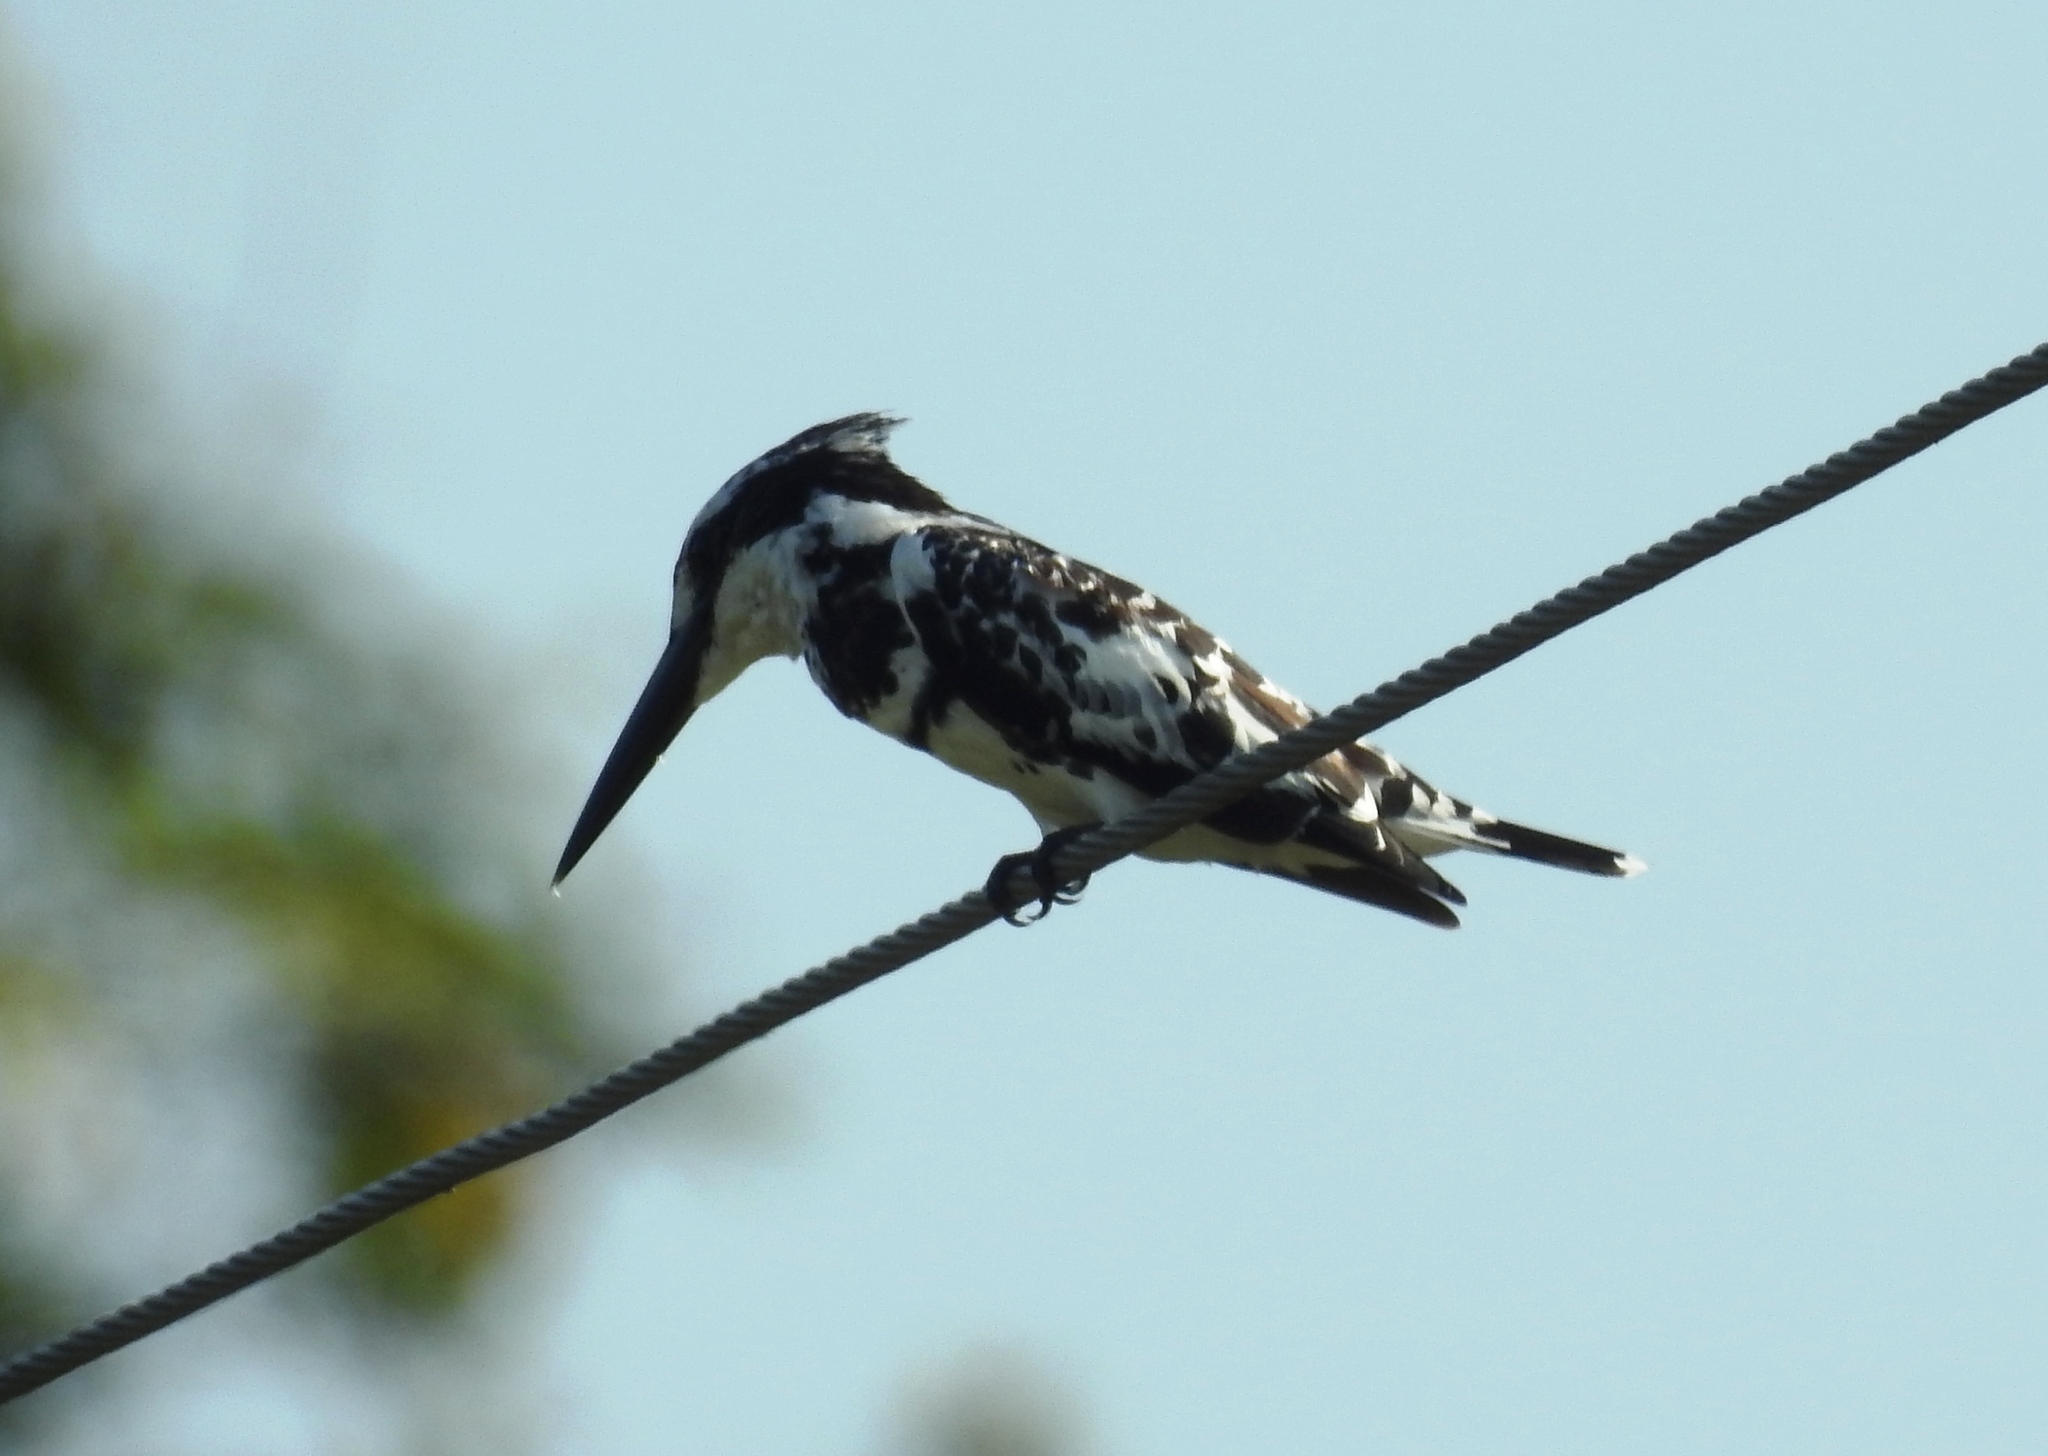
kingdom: Animalia
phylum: Chordata
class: Aves
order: Coraciiformes
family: Alcedinidae
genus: Ceryle
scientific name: Ceryle rudis
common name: Pied kingfisher
